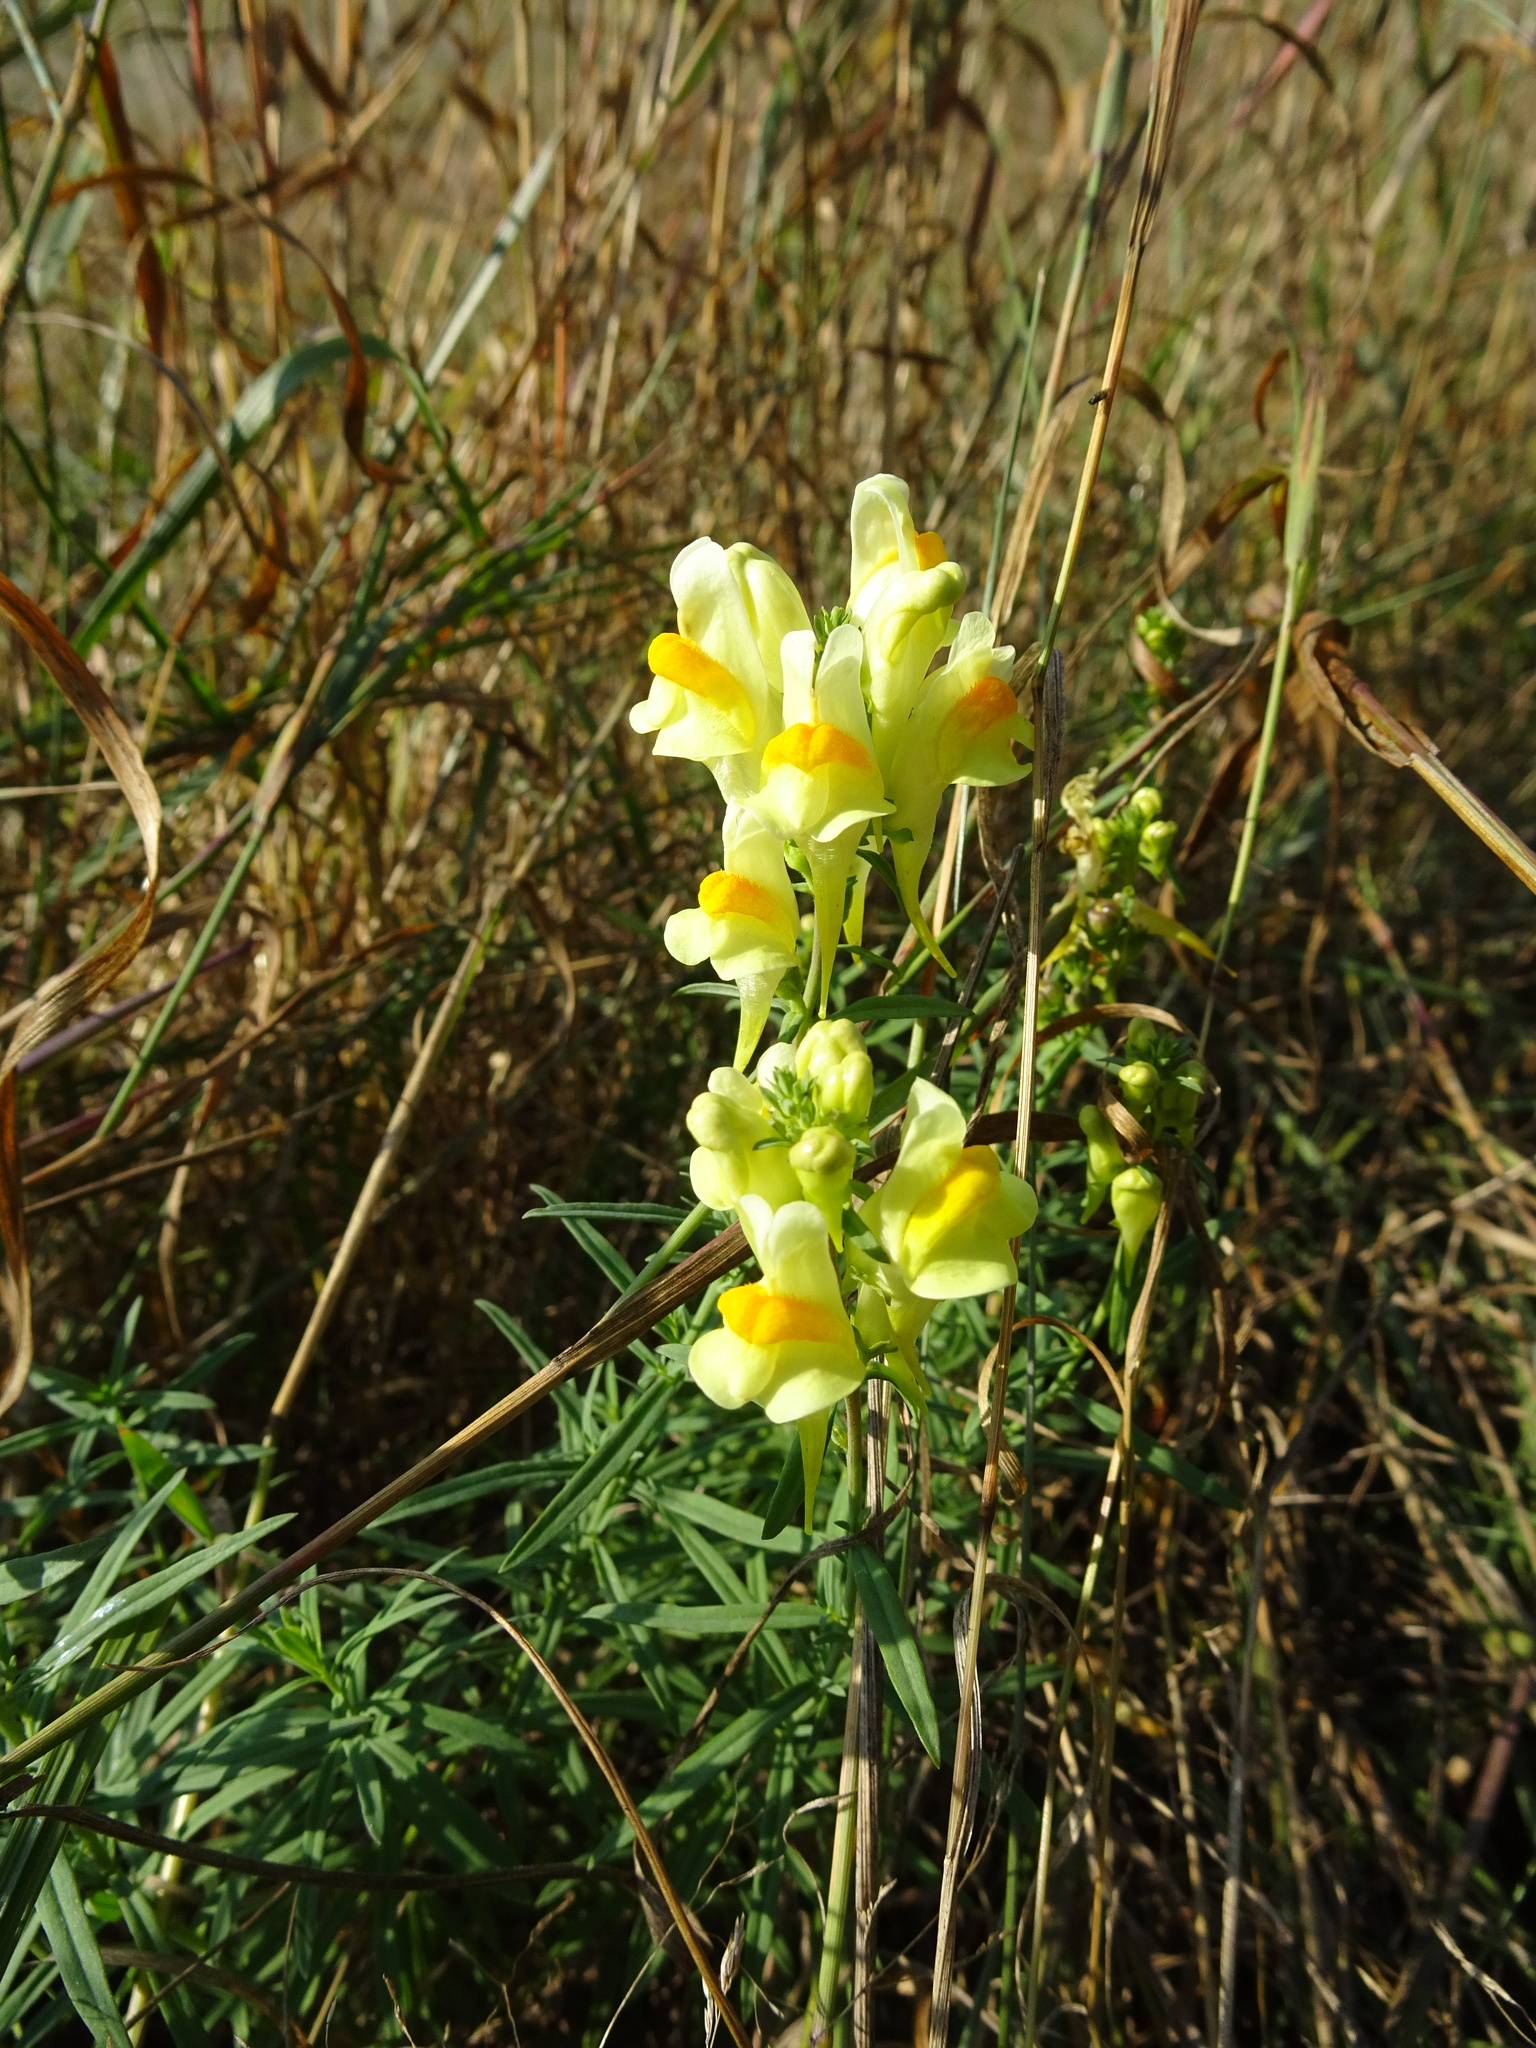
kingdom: Plantae
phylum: Tracheophyta
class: Magnoliopsida
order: Lamiales
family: Plantaginaceae
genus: Linaria
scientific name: Linaria vulgaris
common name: Butter and eggs
